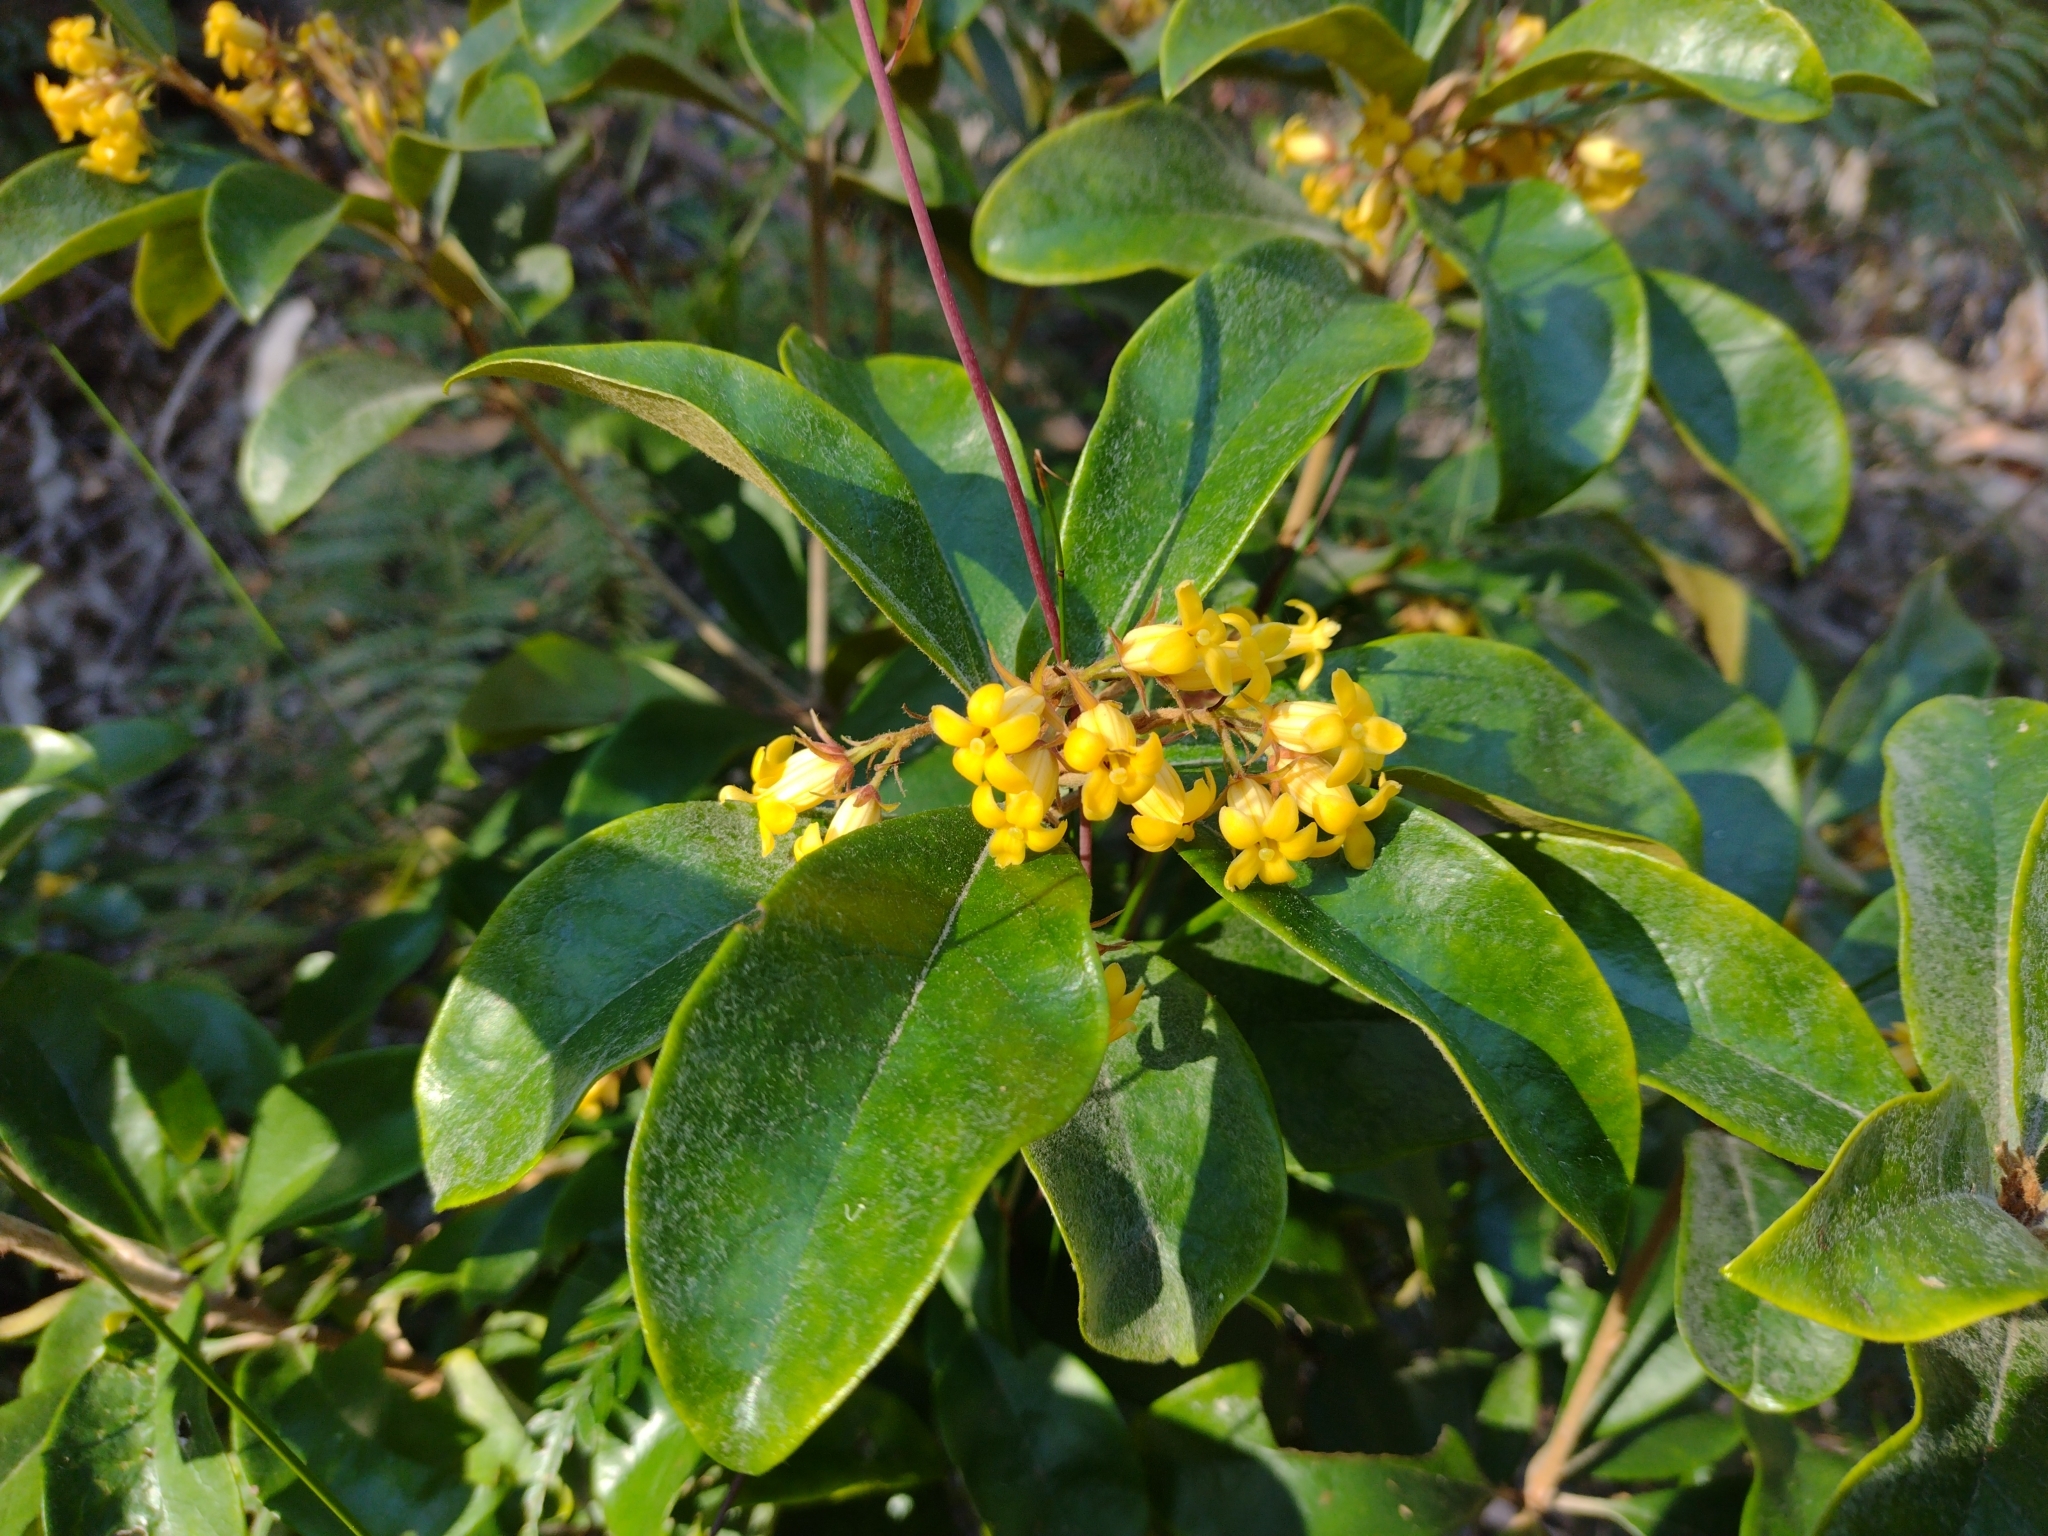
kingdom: Plantae
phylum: Tracheophyta
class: Magnoliopsida
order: Apiales
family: Pittosporaceae
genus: Pittosporum
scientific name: Pittosporum revolutum
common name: Brisbane-laurel
